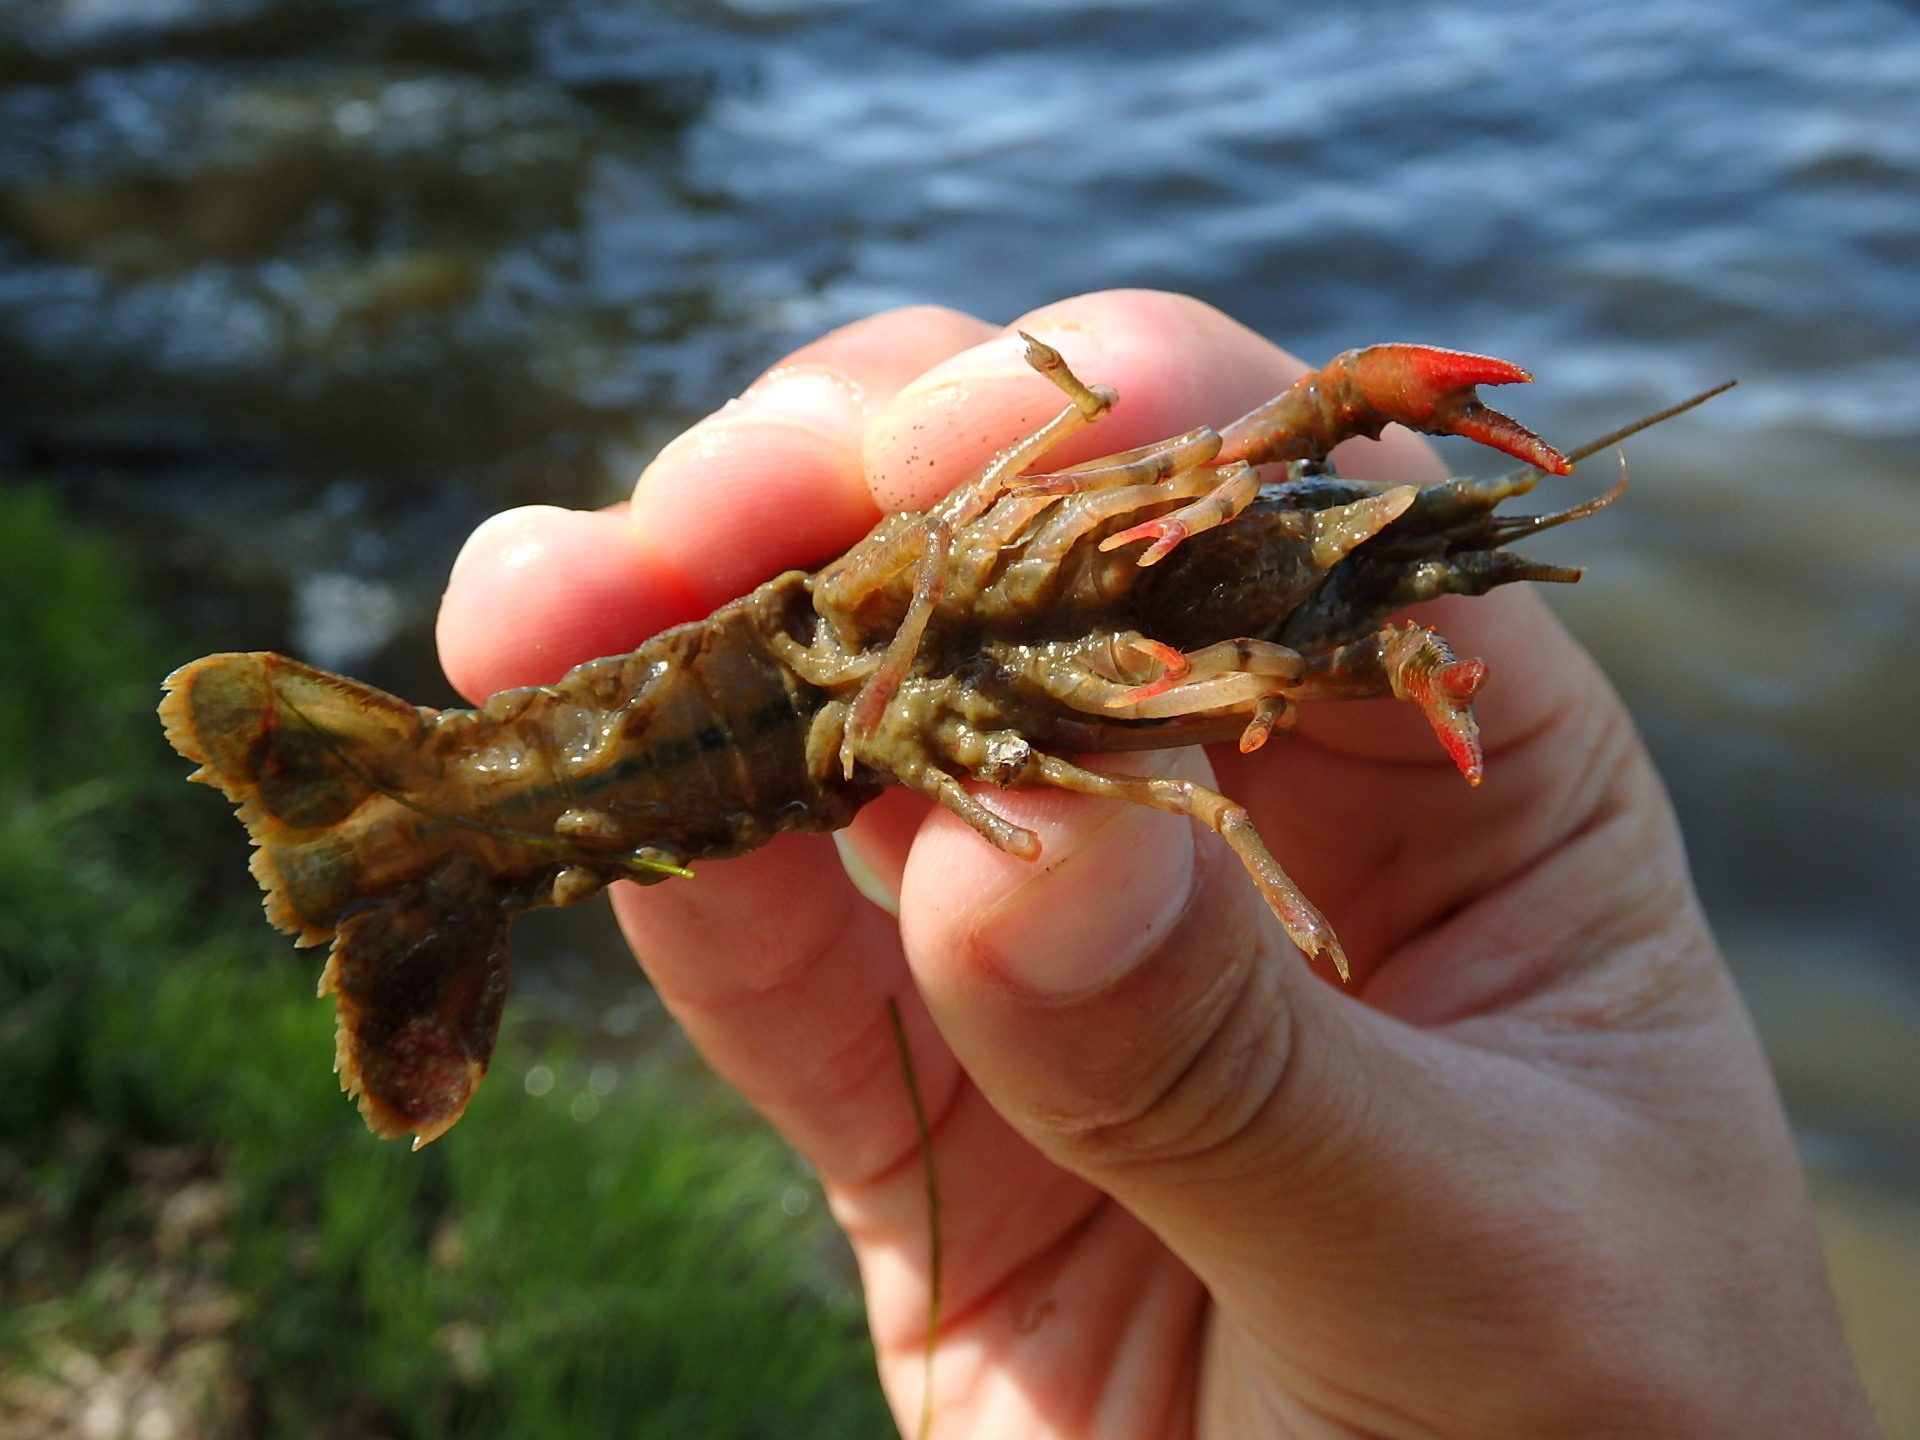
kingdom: Animalia
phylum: Arthropoda
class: Malacostraca
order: Decapoda
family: Cambaridae
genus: Procambarus
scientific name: Procambarus clarkii
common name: Red swamp crayfish
